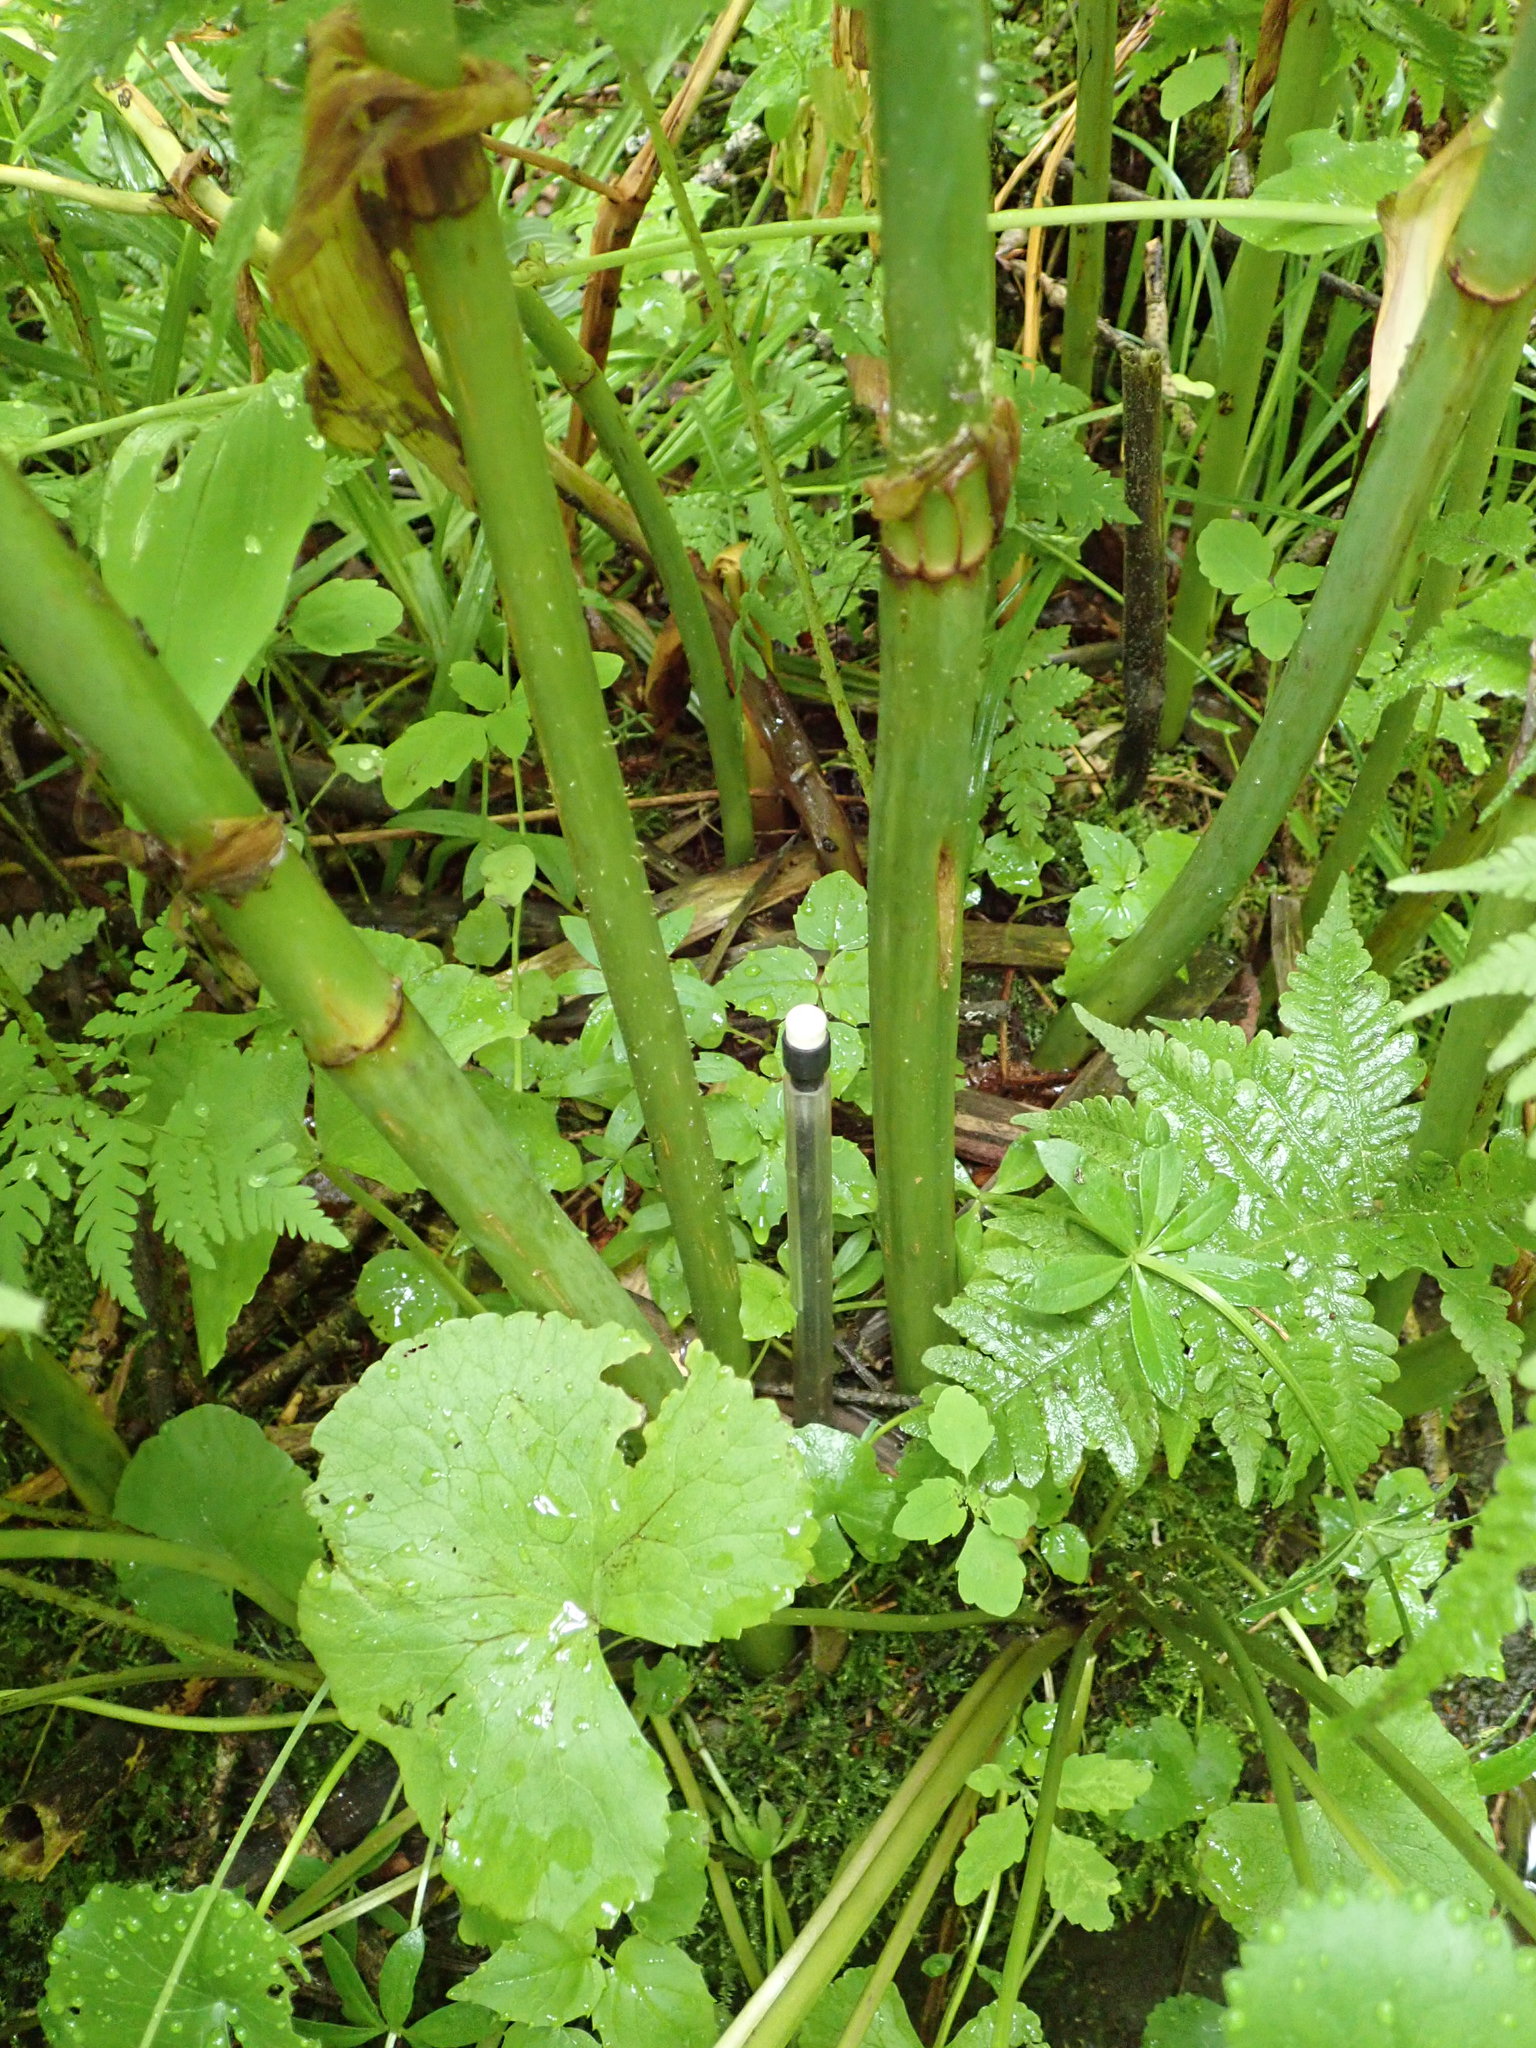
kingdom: Plantae
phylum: Tracheophyta
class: Liliopsida
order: Liliales
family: Liliaceae
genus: Streptopus
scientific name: Streptopus amplexifolius
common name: Clasp twisted stalk
